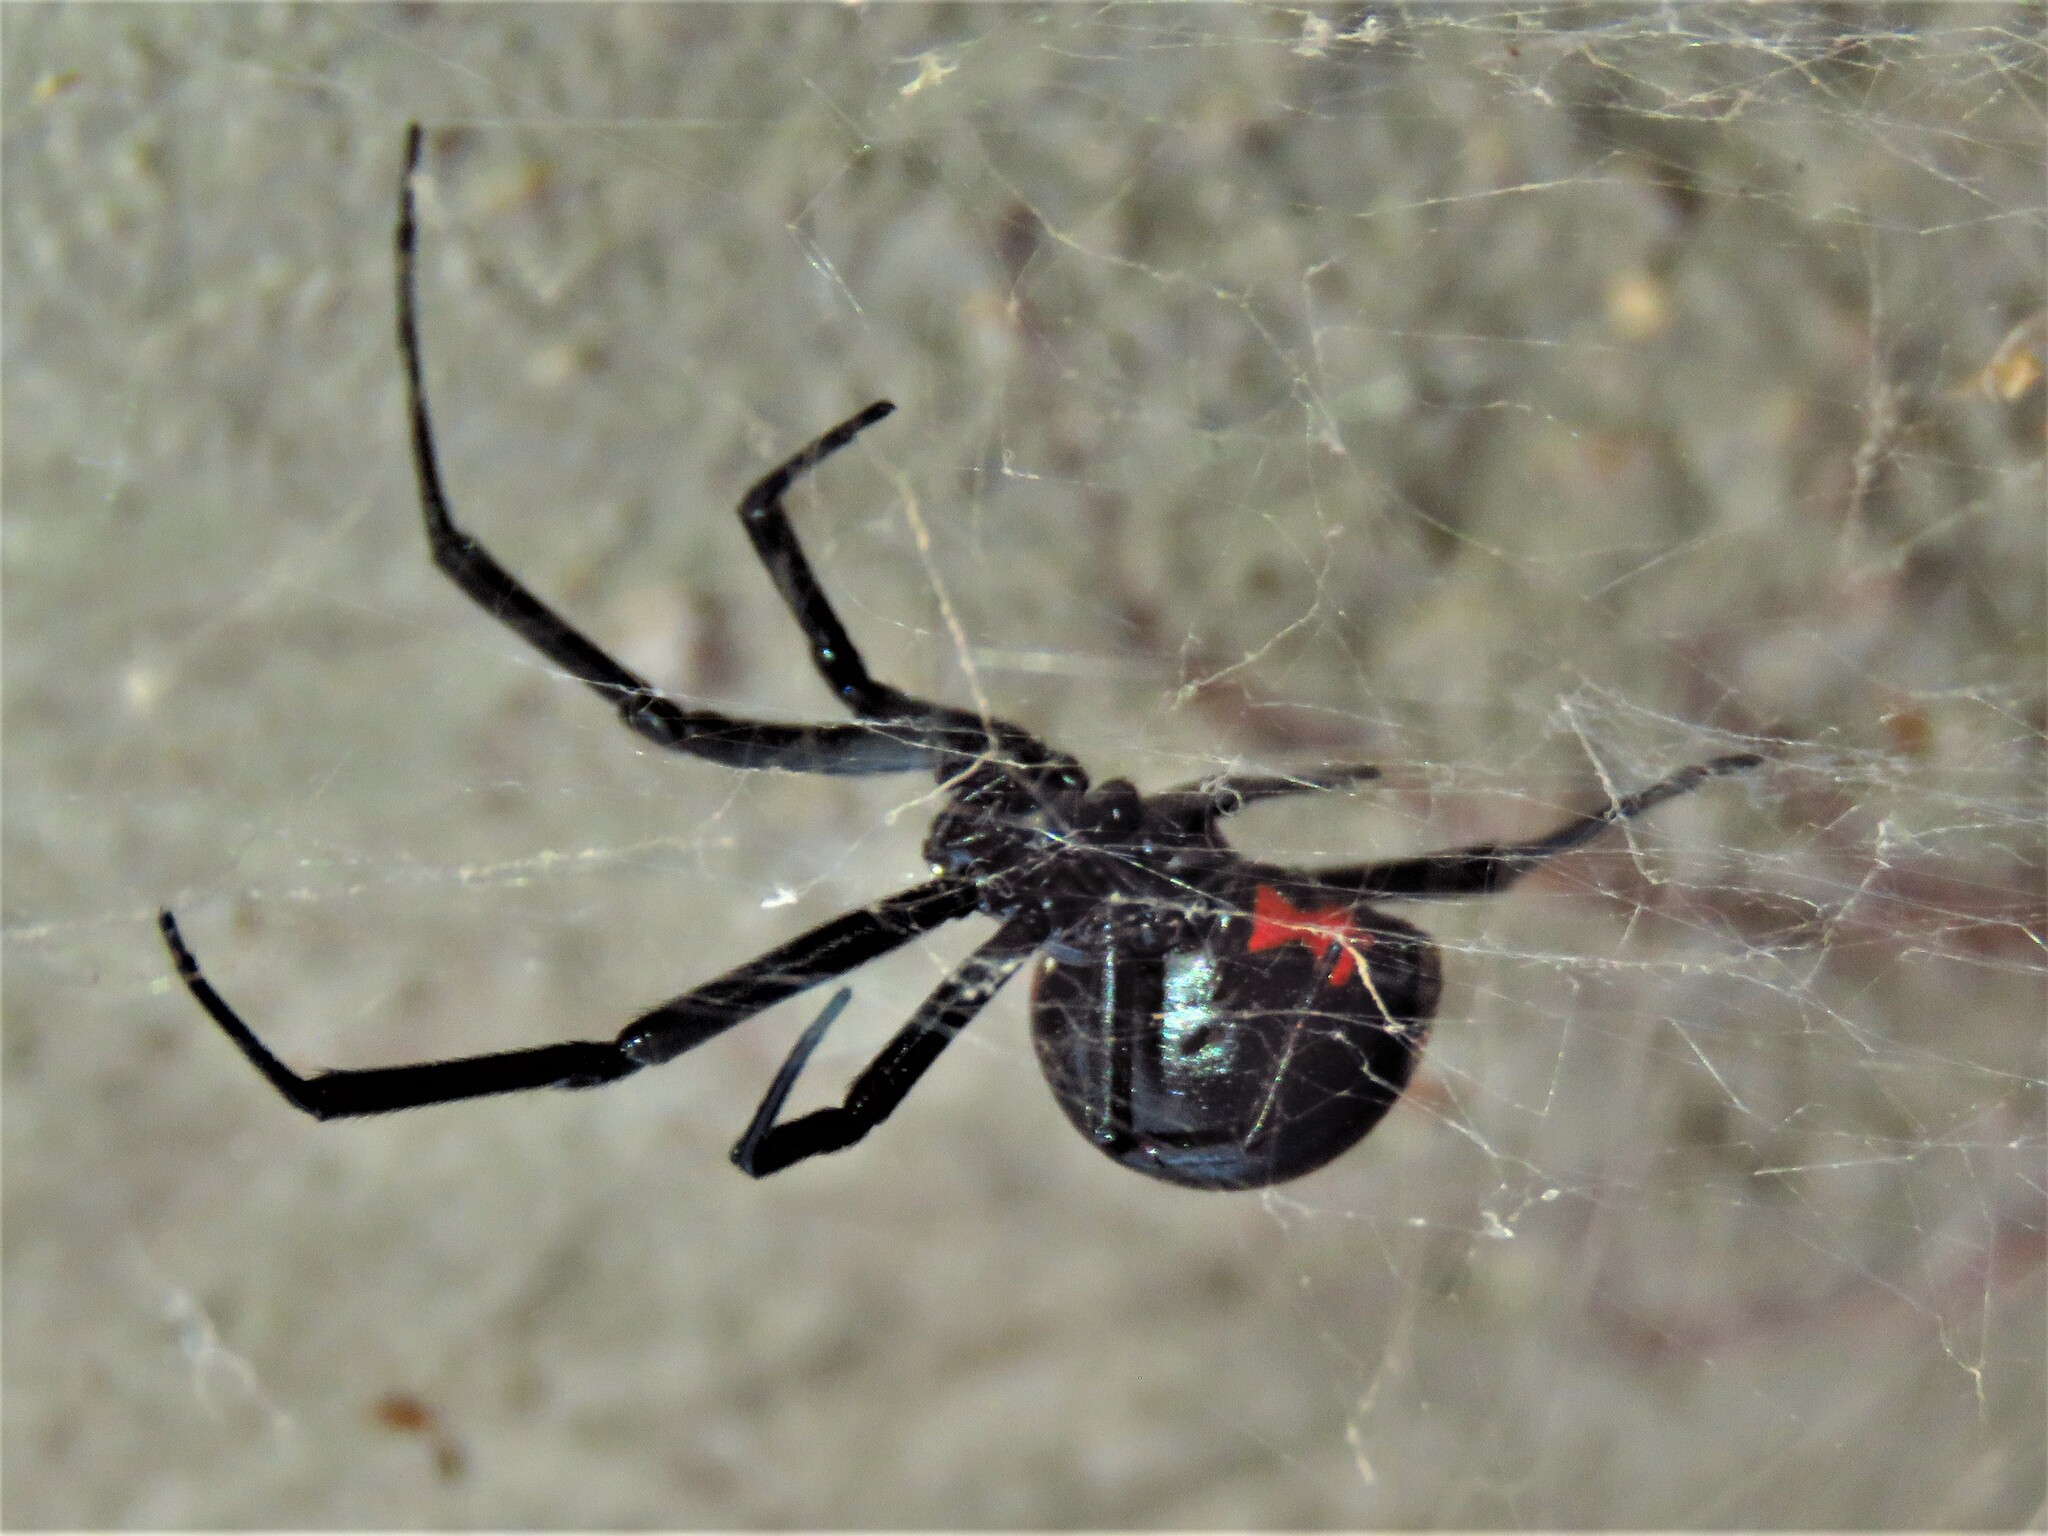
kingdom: Animalia
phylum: Arthropoda
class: Arachnida
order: Araneae
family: Theridiidae
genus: Latrodectus
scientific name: Latrodectus mactans
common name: Cobweb spiders
